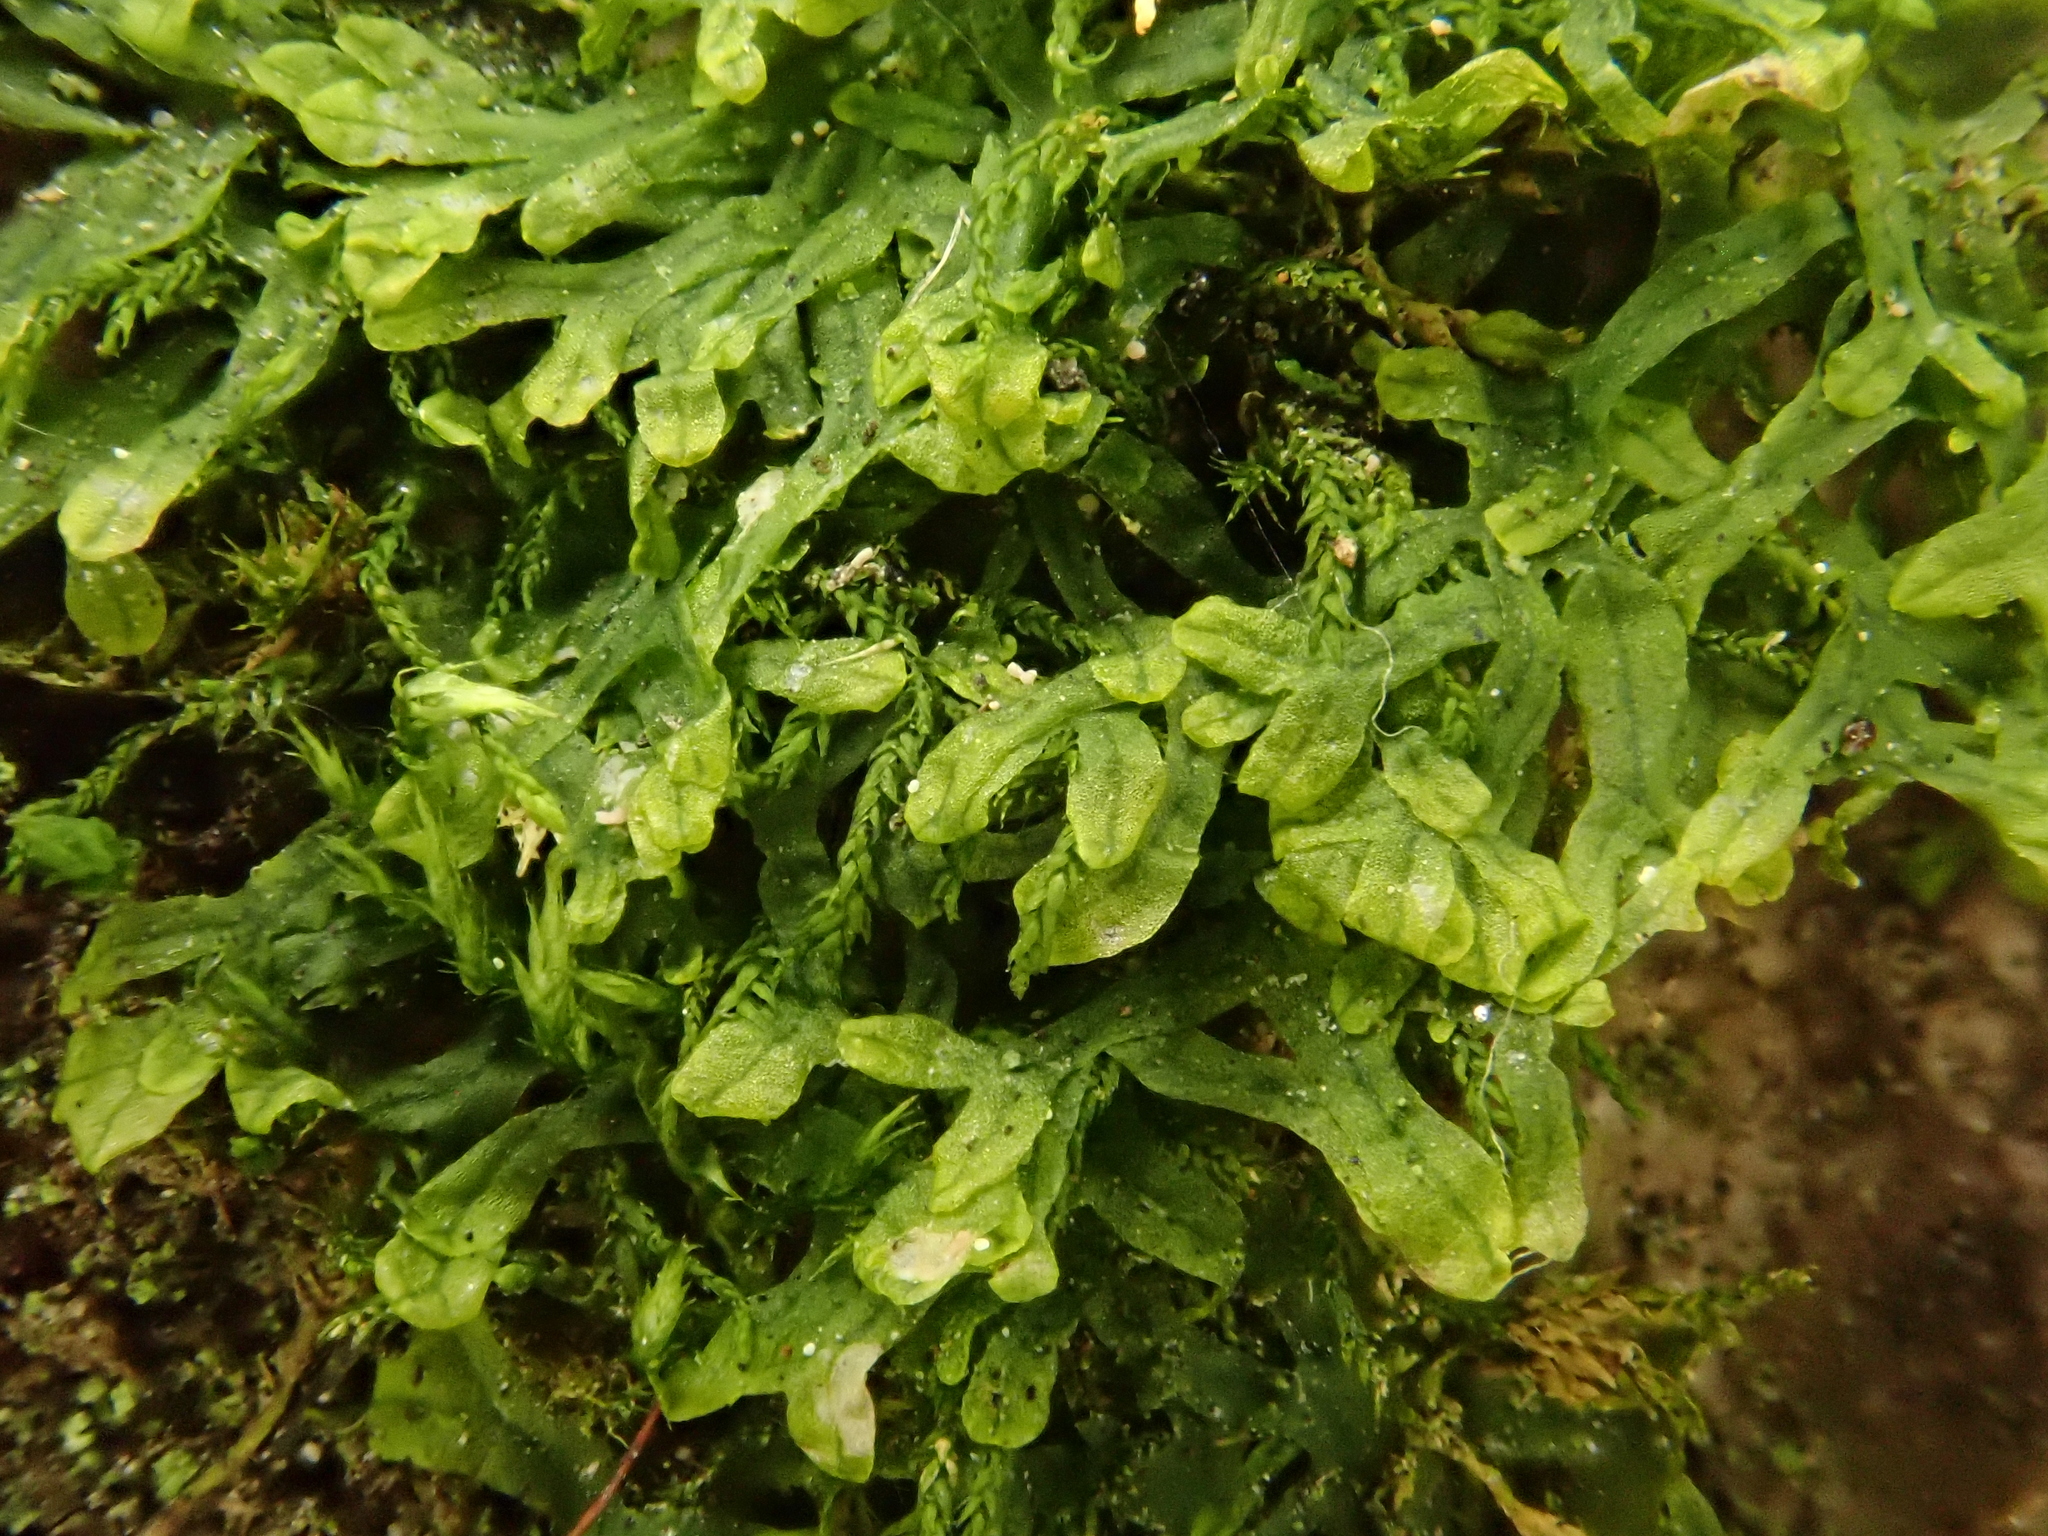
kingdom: Plantae
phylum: Marchantiophyta
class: Jungermanniopsida
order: Metzgeriales
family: Metzgeriaceae
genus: Metzgeria
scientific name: Metzgeria furcata
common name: Forked veilwort
